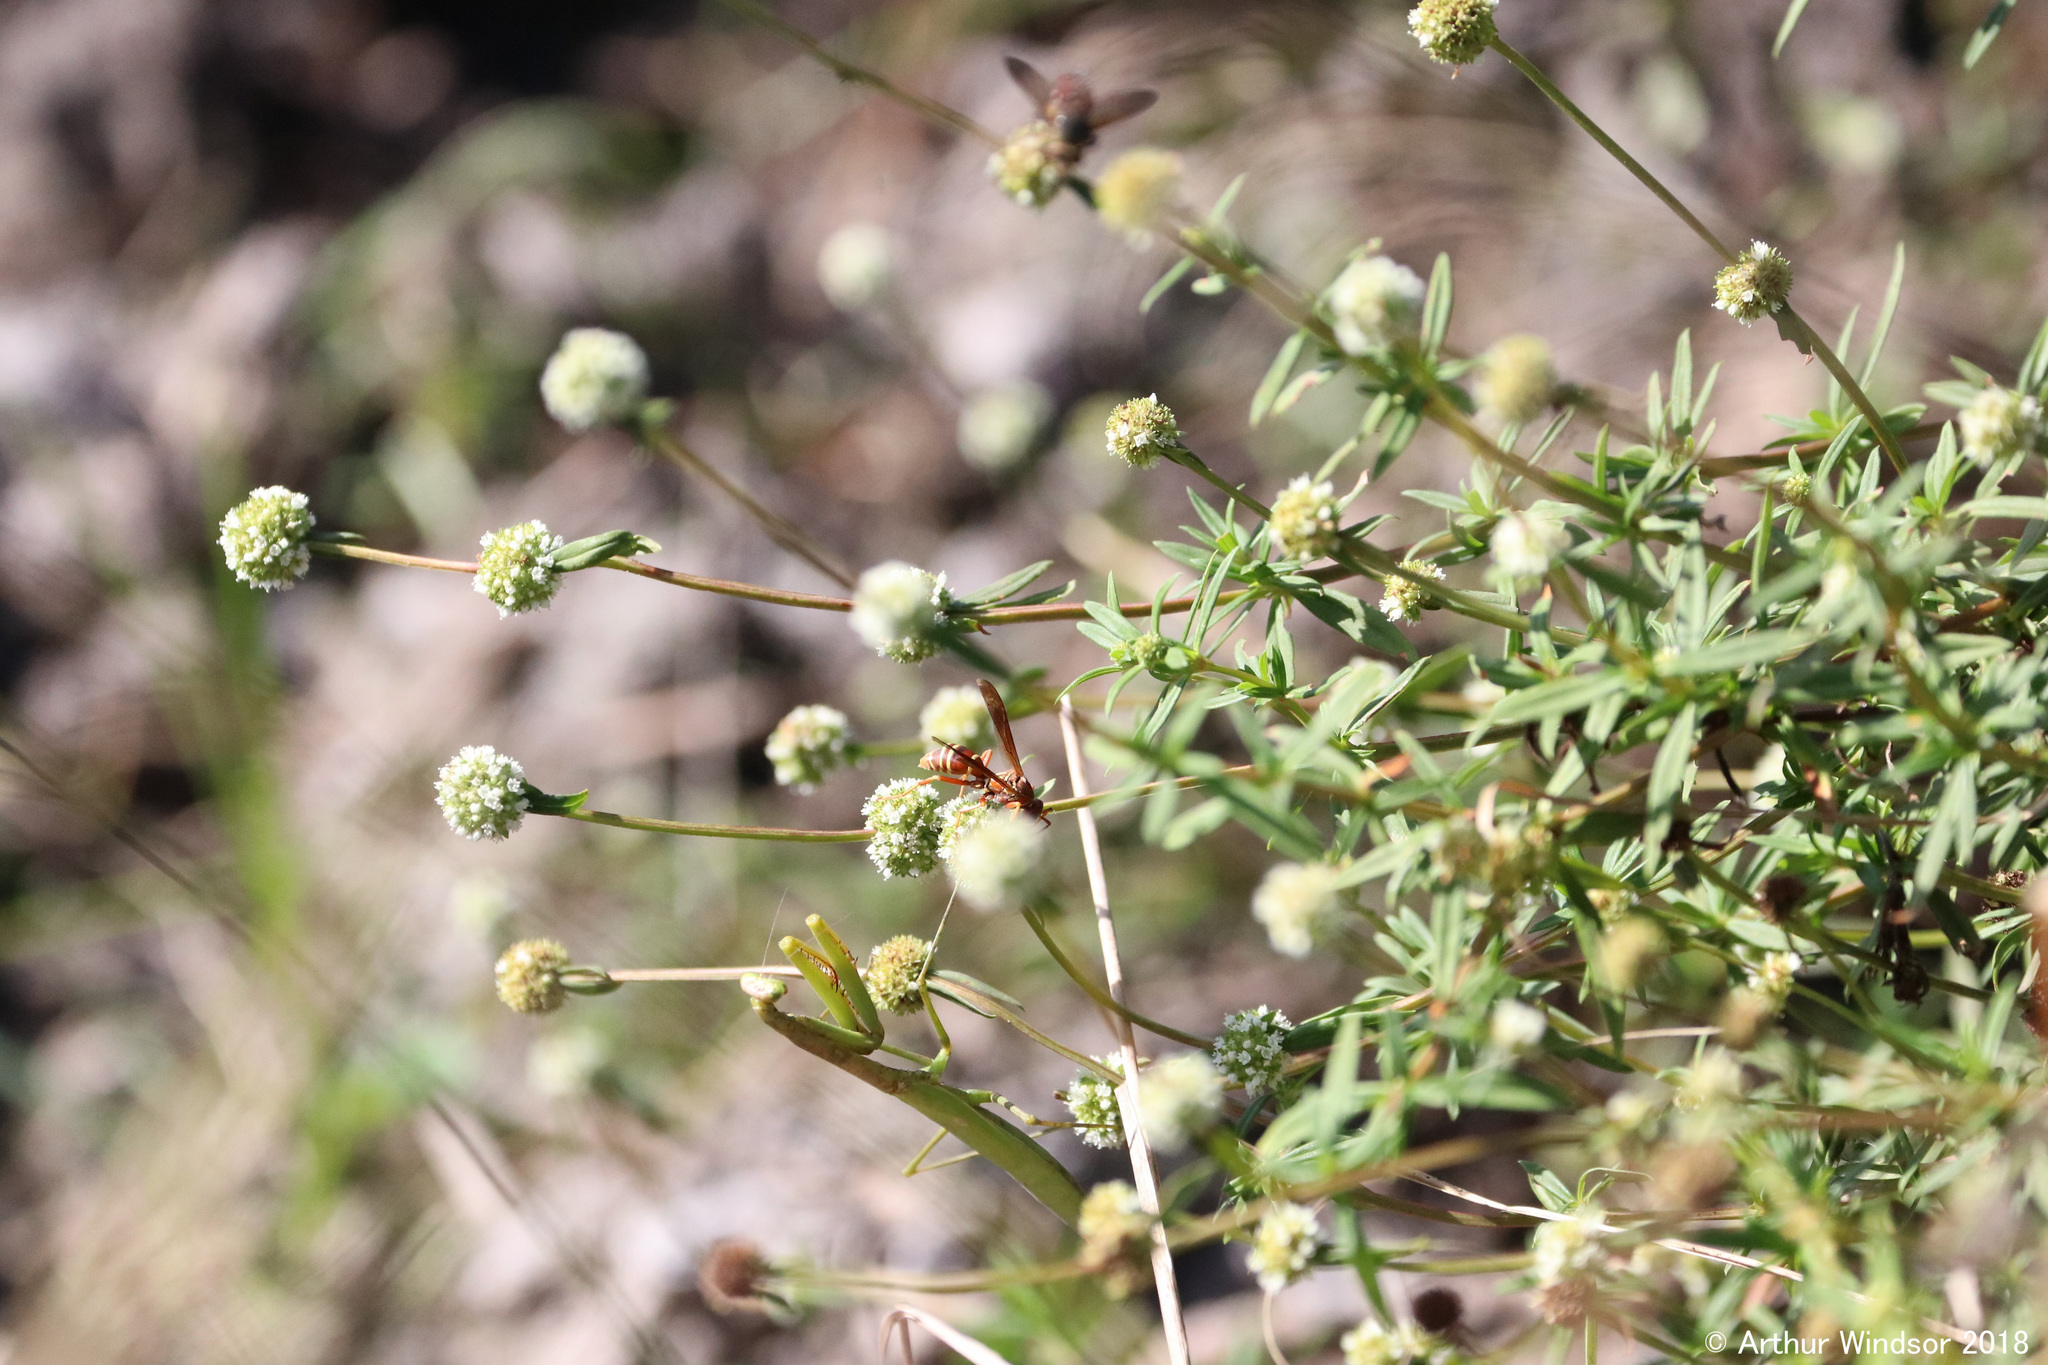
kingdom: Animalia
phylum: Arthropoda
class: Insecta
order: Mantodea
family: Mantidae
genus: Stagmomantis
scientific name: Stagmomantis floridensis
